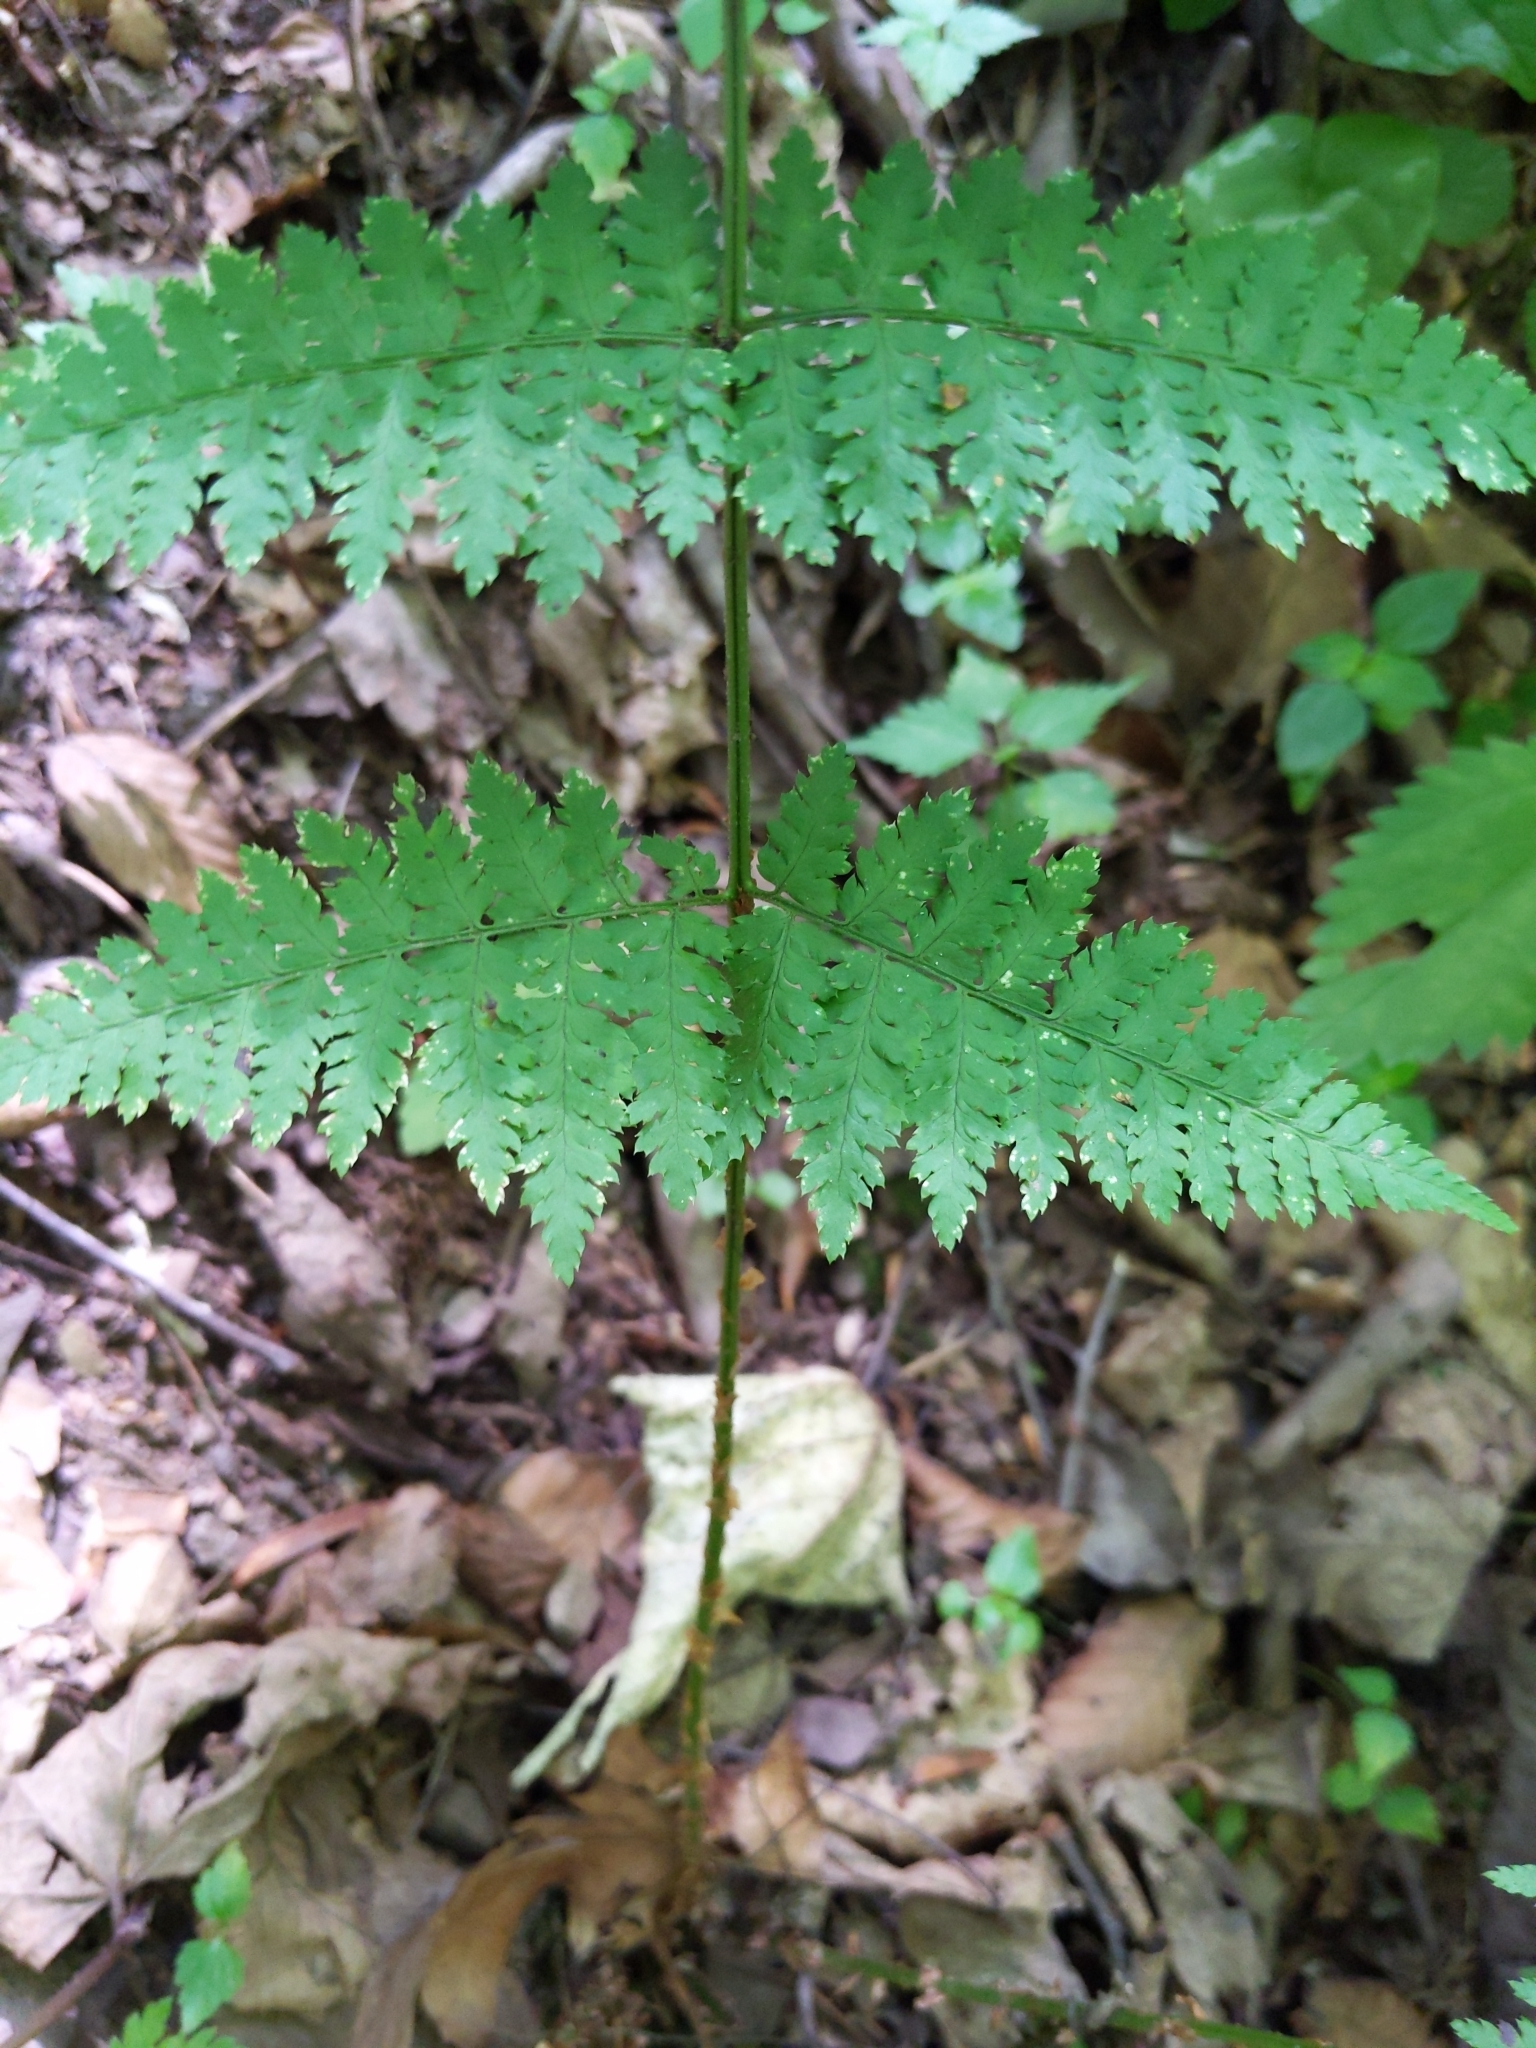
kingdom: Plantae
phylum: Tracheophyta
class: Polypodiopsida
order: Polypodiales
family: Dryopteridaceae
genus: Dryopteris
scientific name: Dryopteris intermedia
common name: Evergreen wood fern
